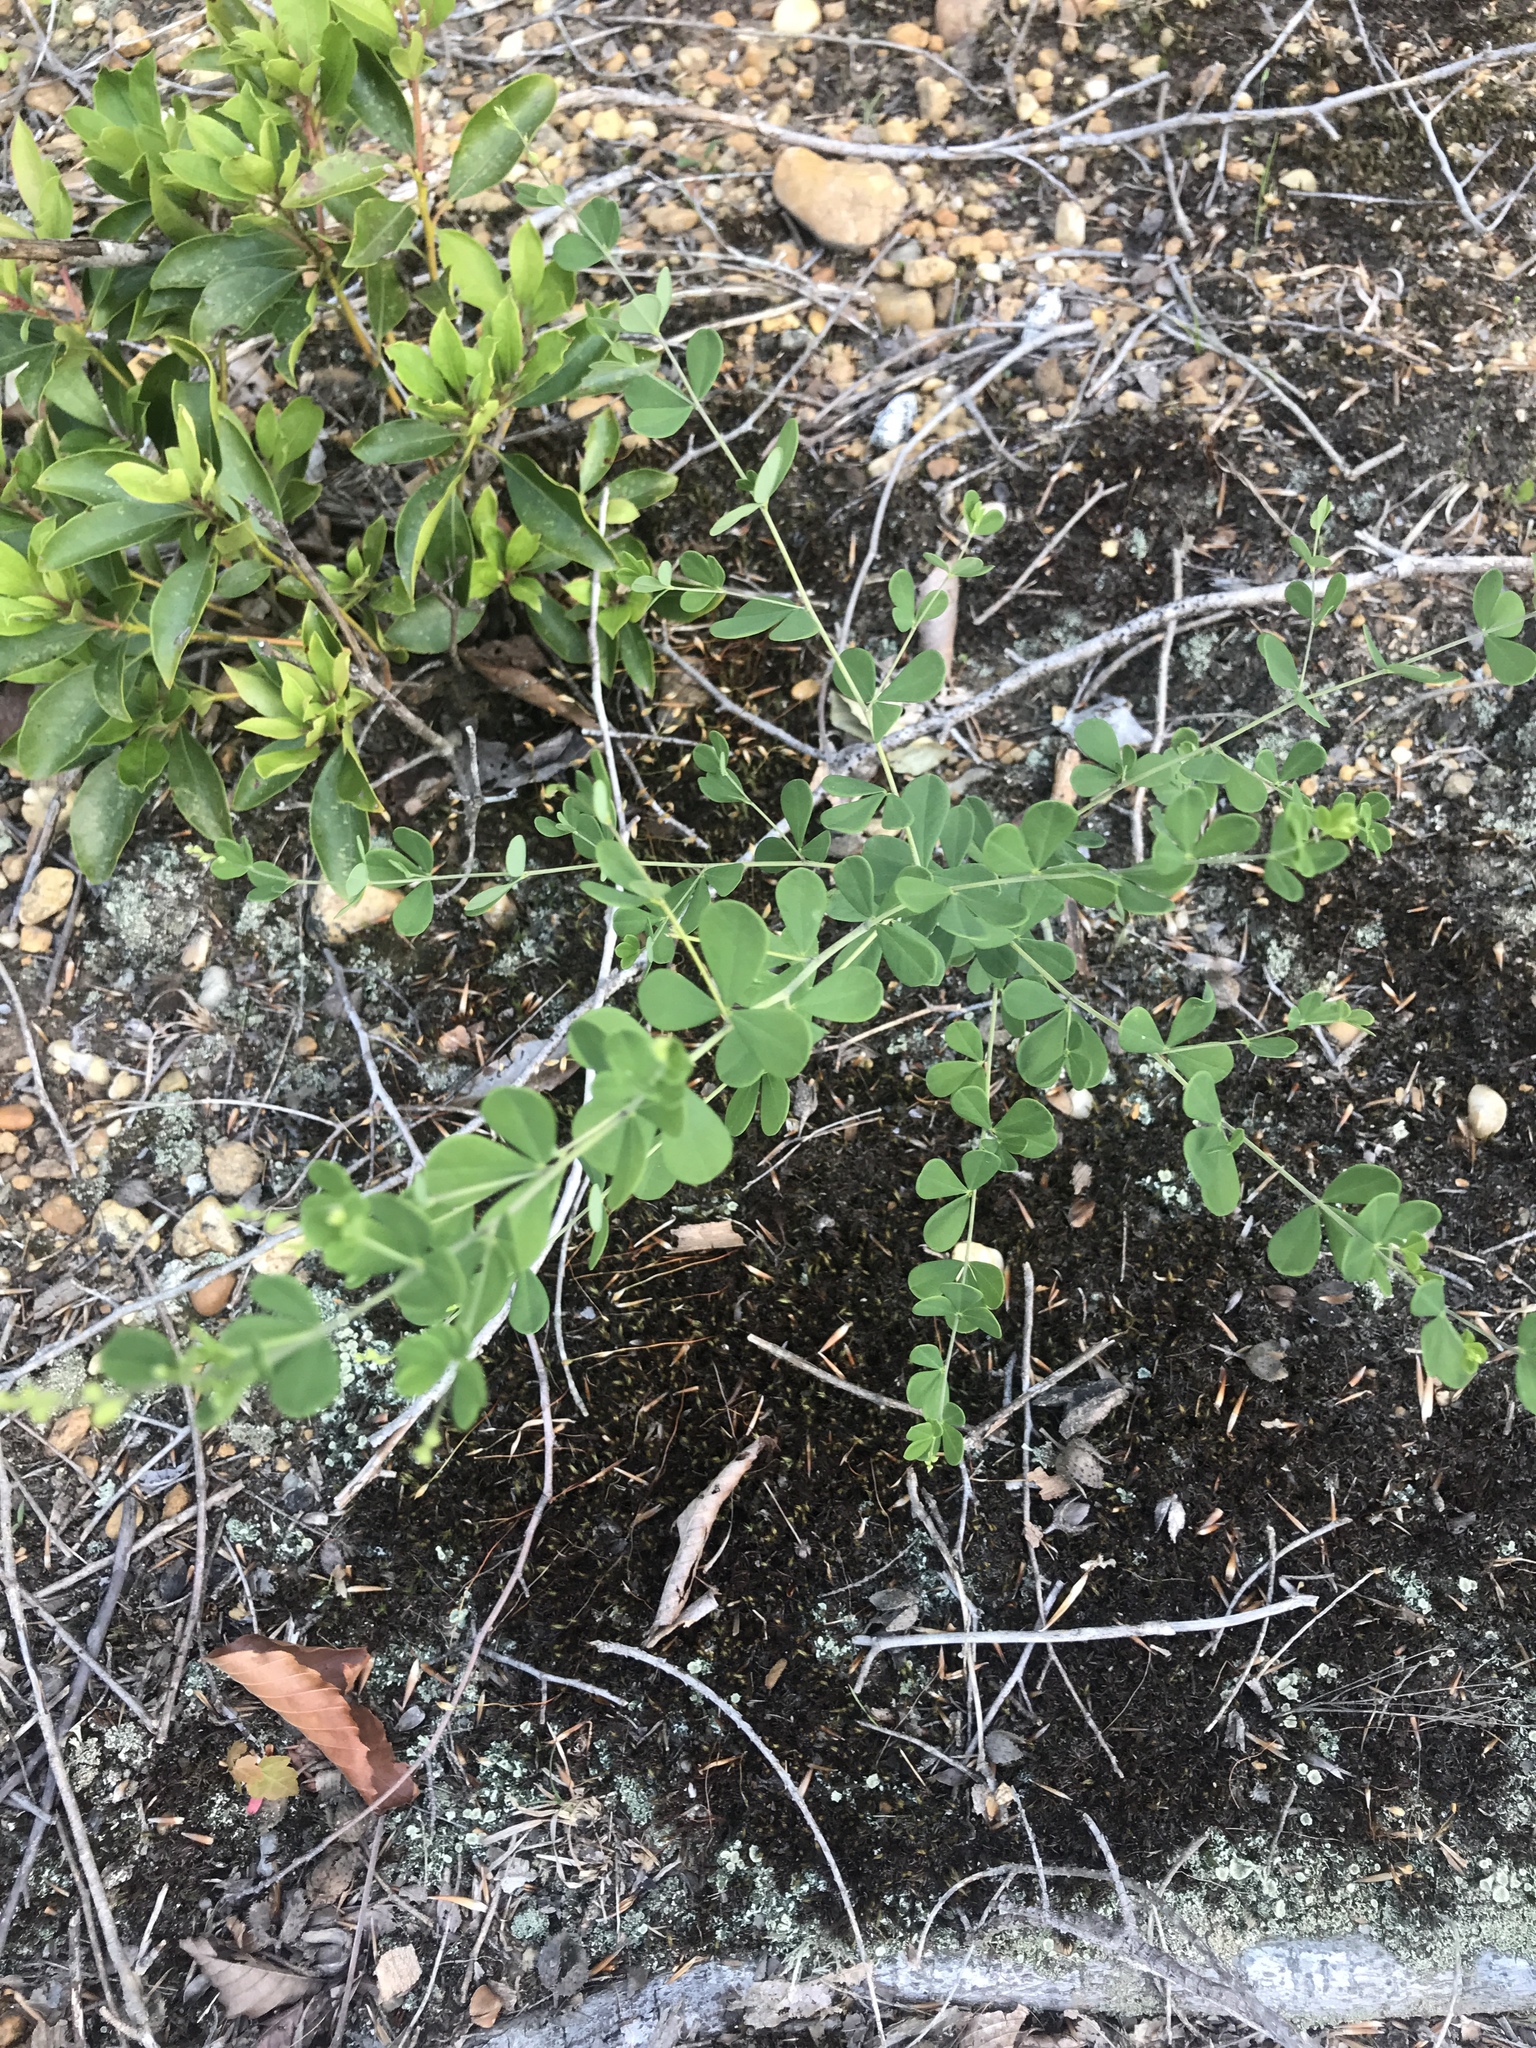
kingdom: Plantae
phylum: Tracheophyta
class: Magnoliopsida
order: Fabales
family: Fabaceae
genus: Baptisia
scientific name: Baptisia tinctoria
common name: Wild indigo
